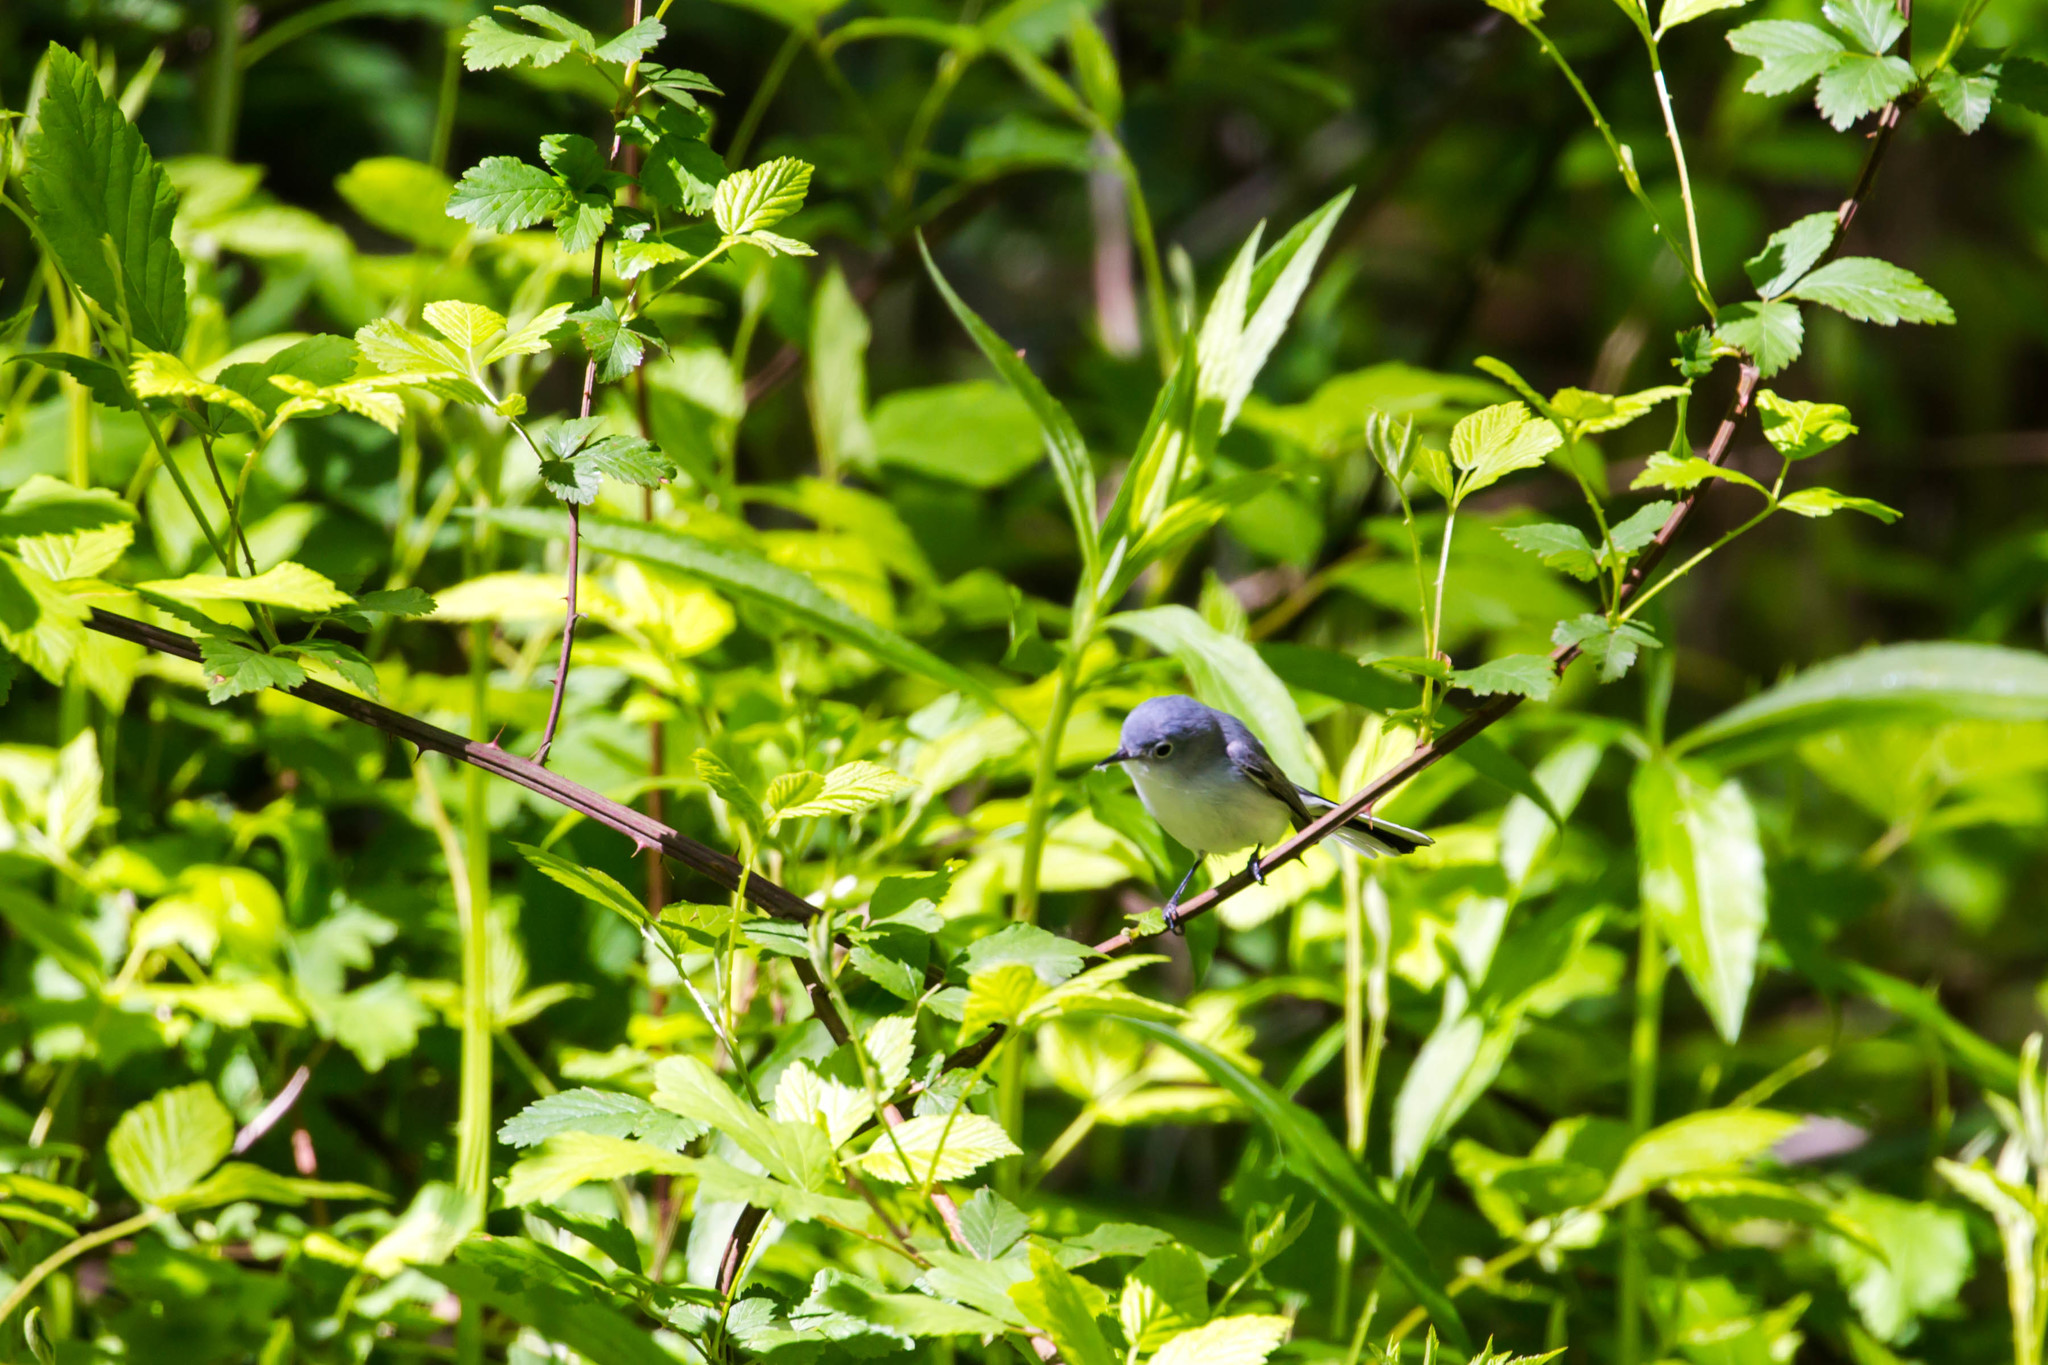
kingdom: Animalia
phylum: Chordata
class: Aves
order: Passeriformes
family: Polioptilidae
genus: Polioptila
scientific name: Polioptila caerulea
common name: Blue-gray gnatcatcher
